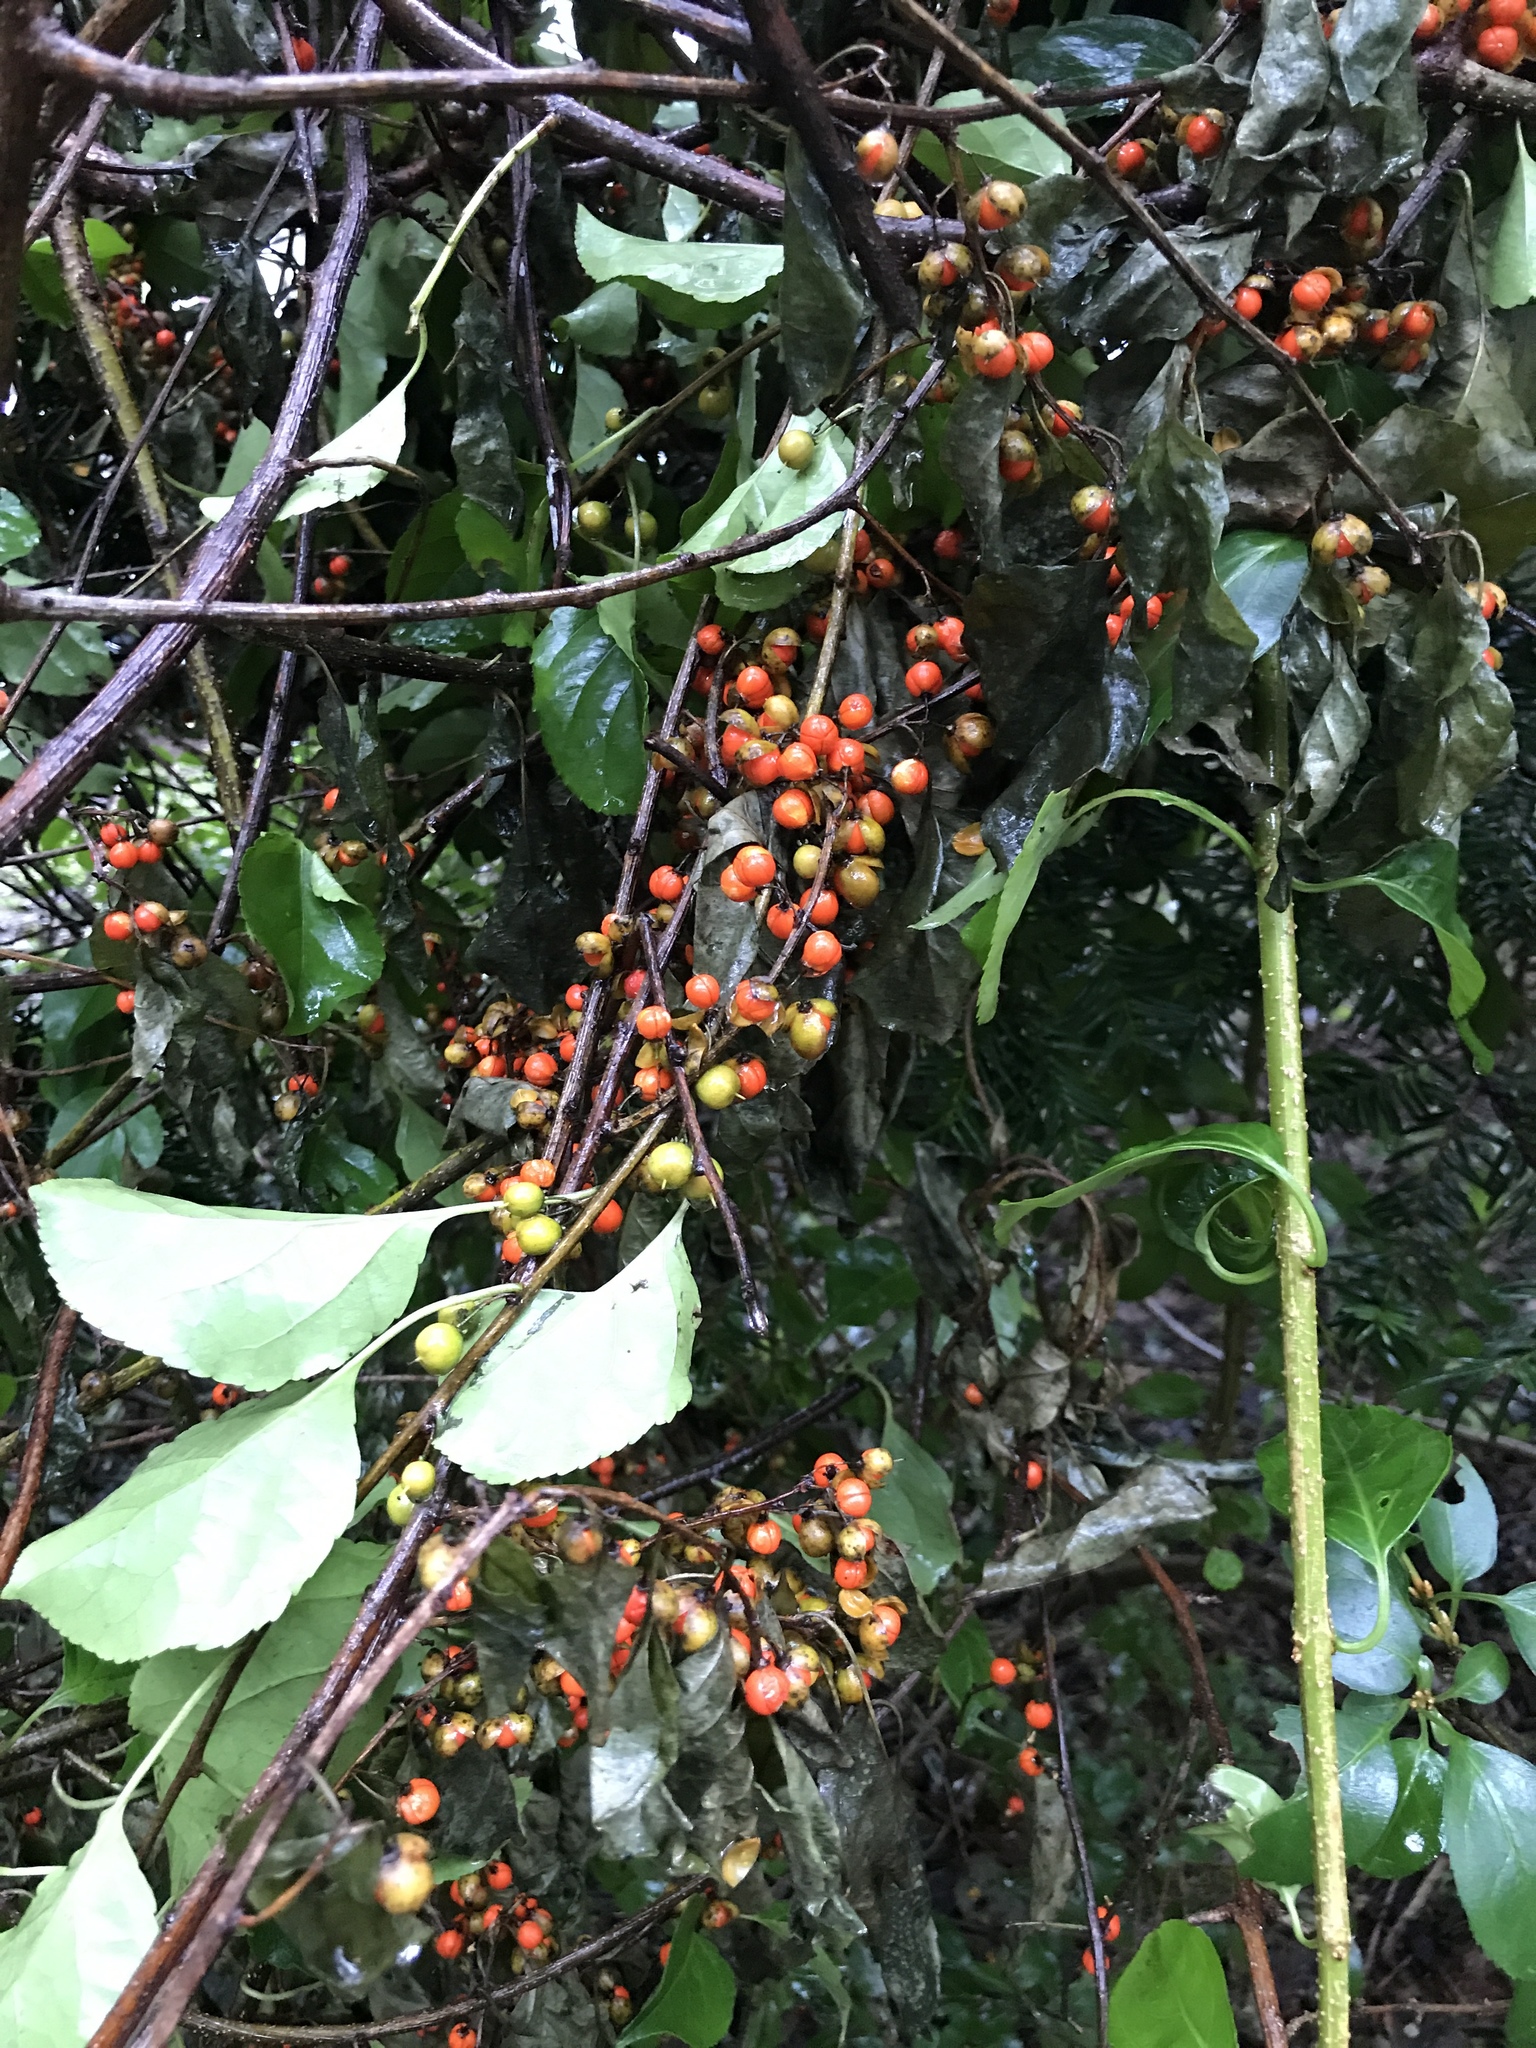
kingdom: Plantae
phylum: Tracheophyta
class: Magnoliopsida
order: Celastrales
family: Celastraceae
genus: Celastrus
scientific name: Celastrus orbiculatus
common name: Oriental bittersweet
